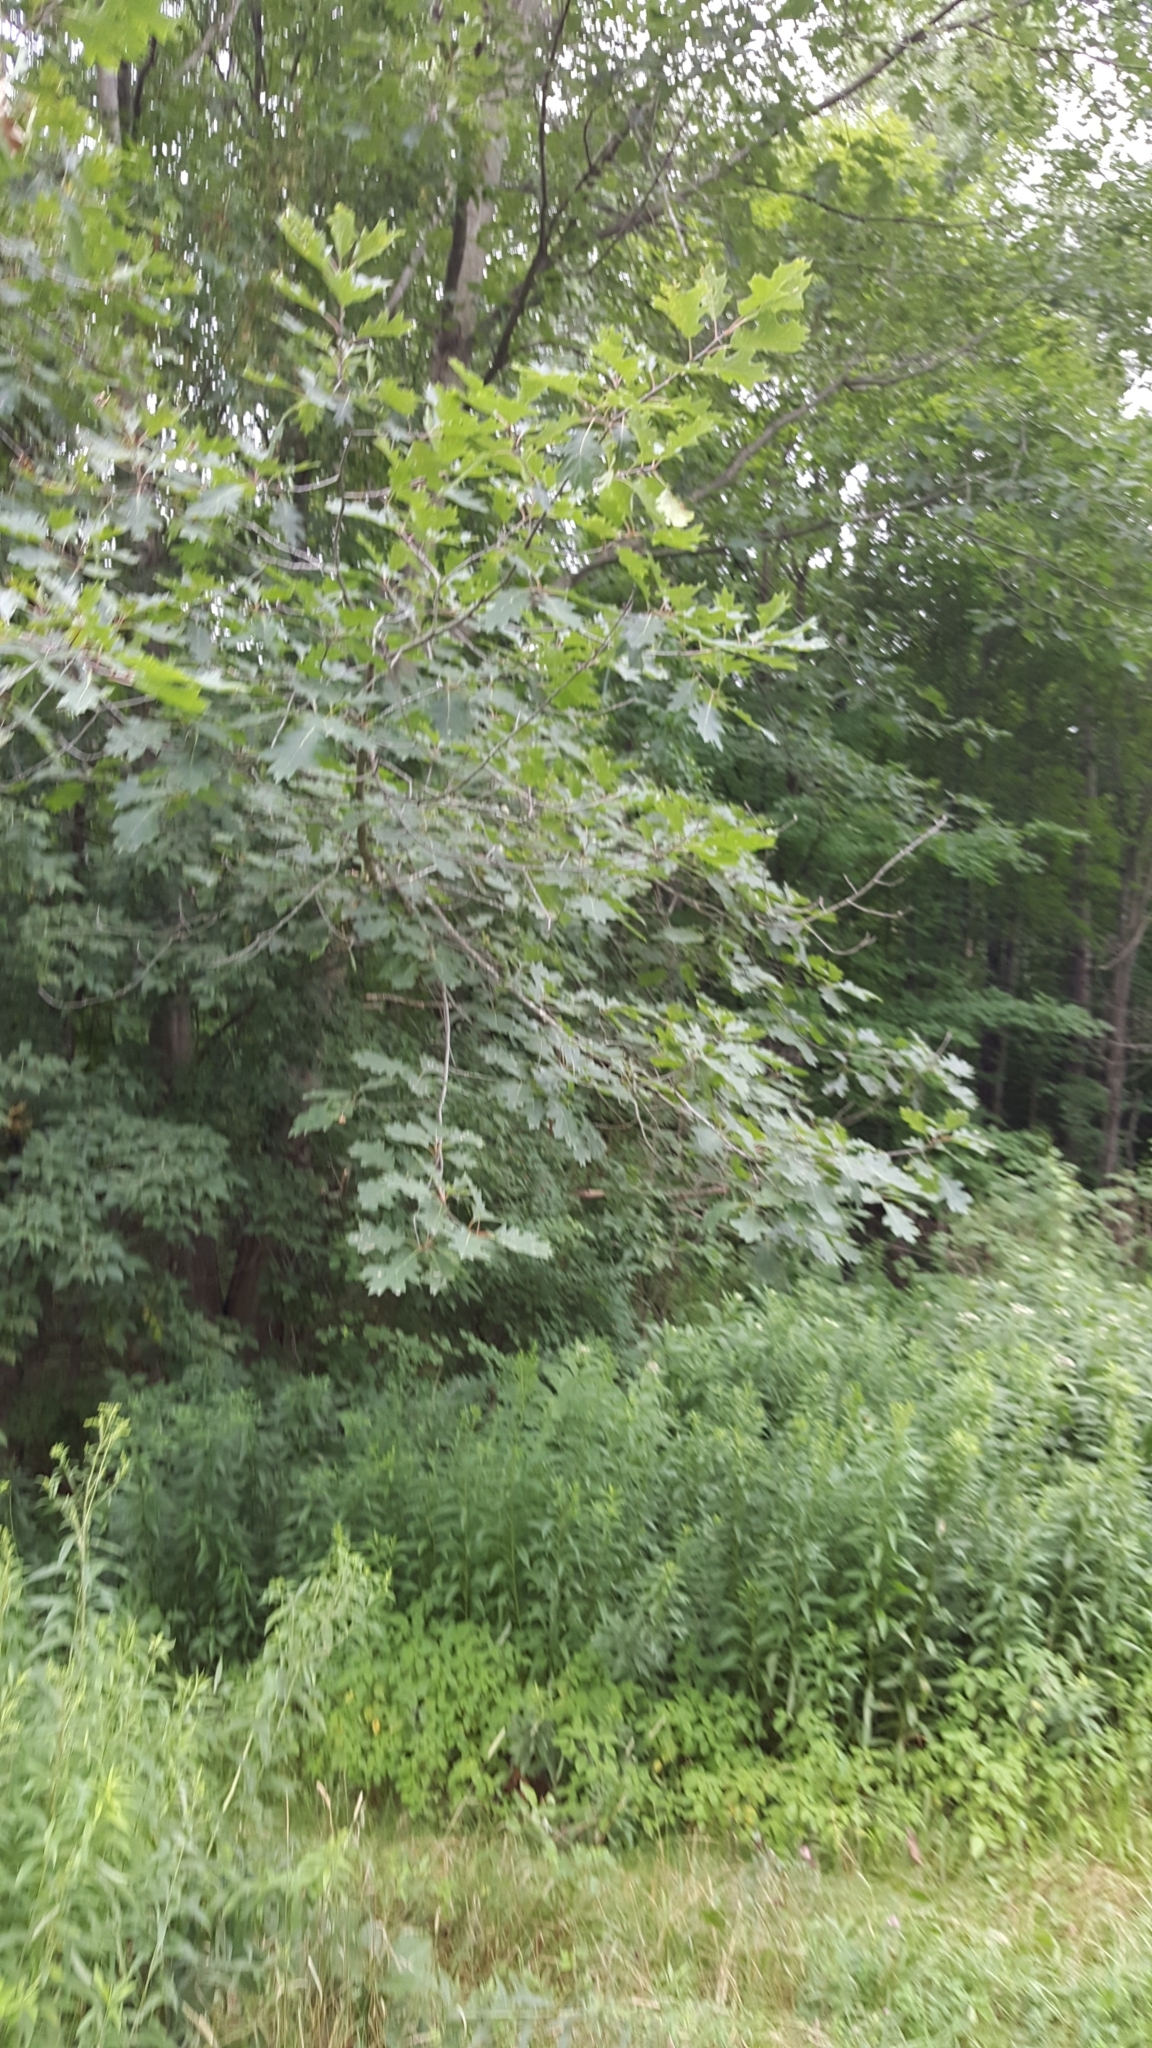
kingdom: Plantae
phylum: Tracheophyta
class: Magnoliopsida
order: Fagales
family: Fagaceae
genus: Quercus
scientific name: Quercus rubra
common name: Red oak
